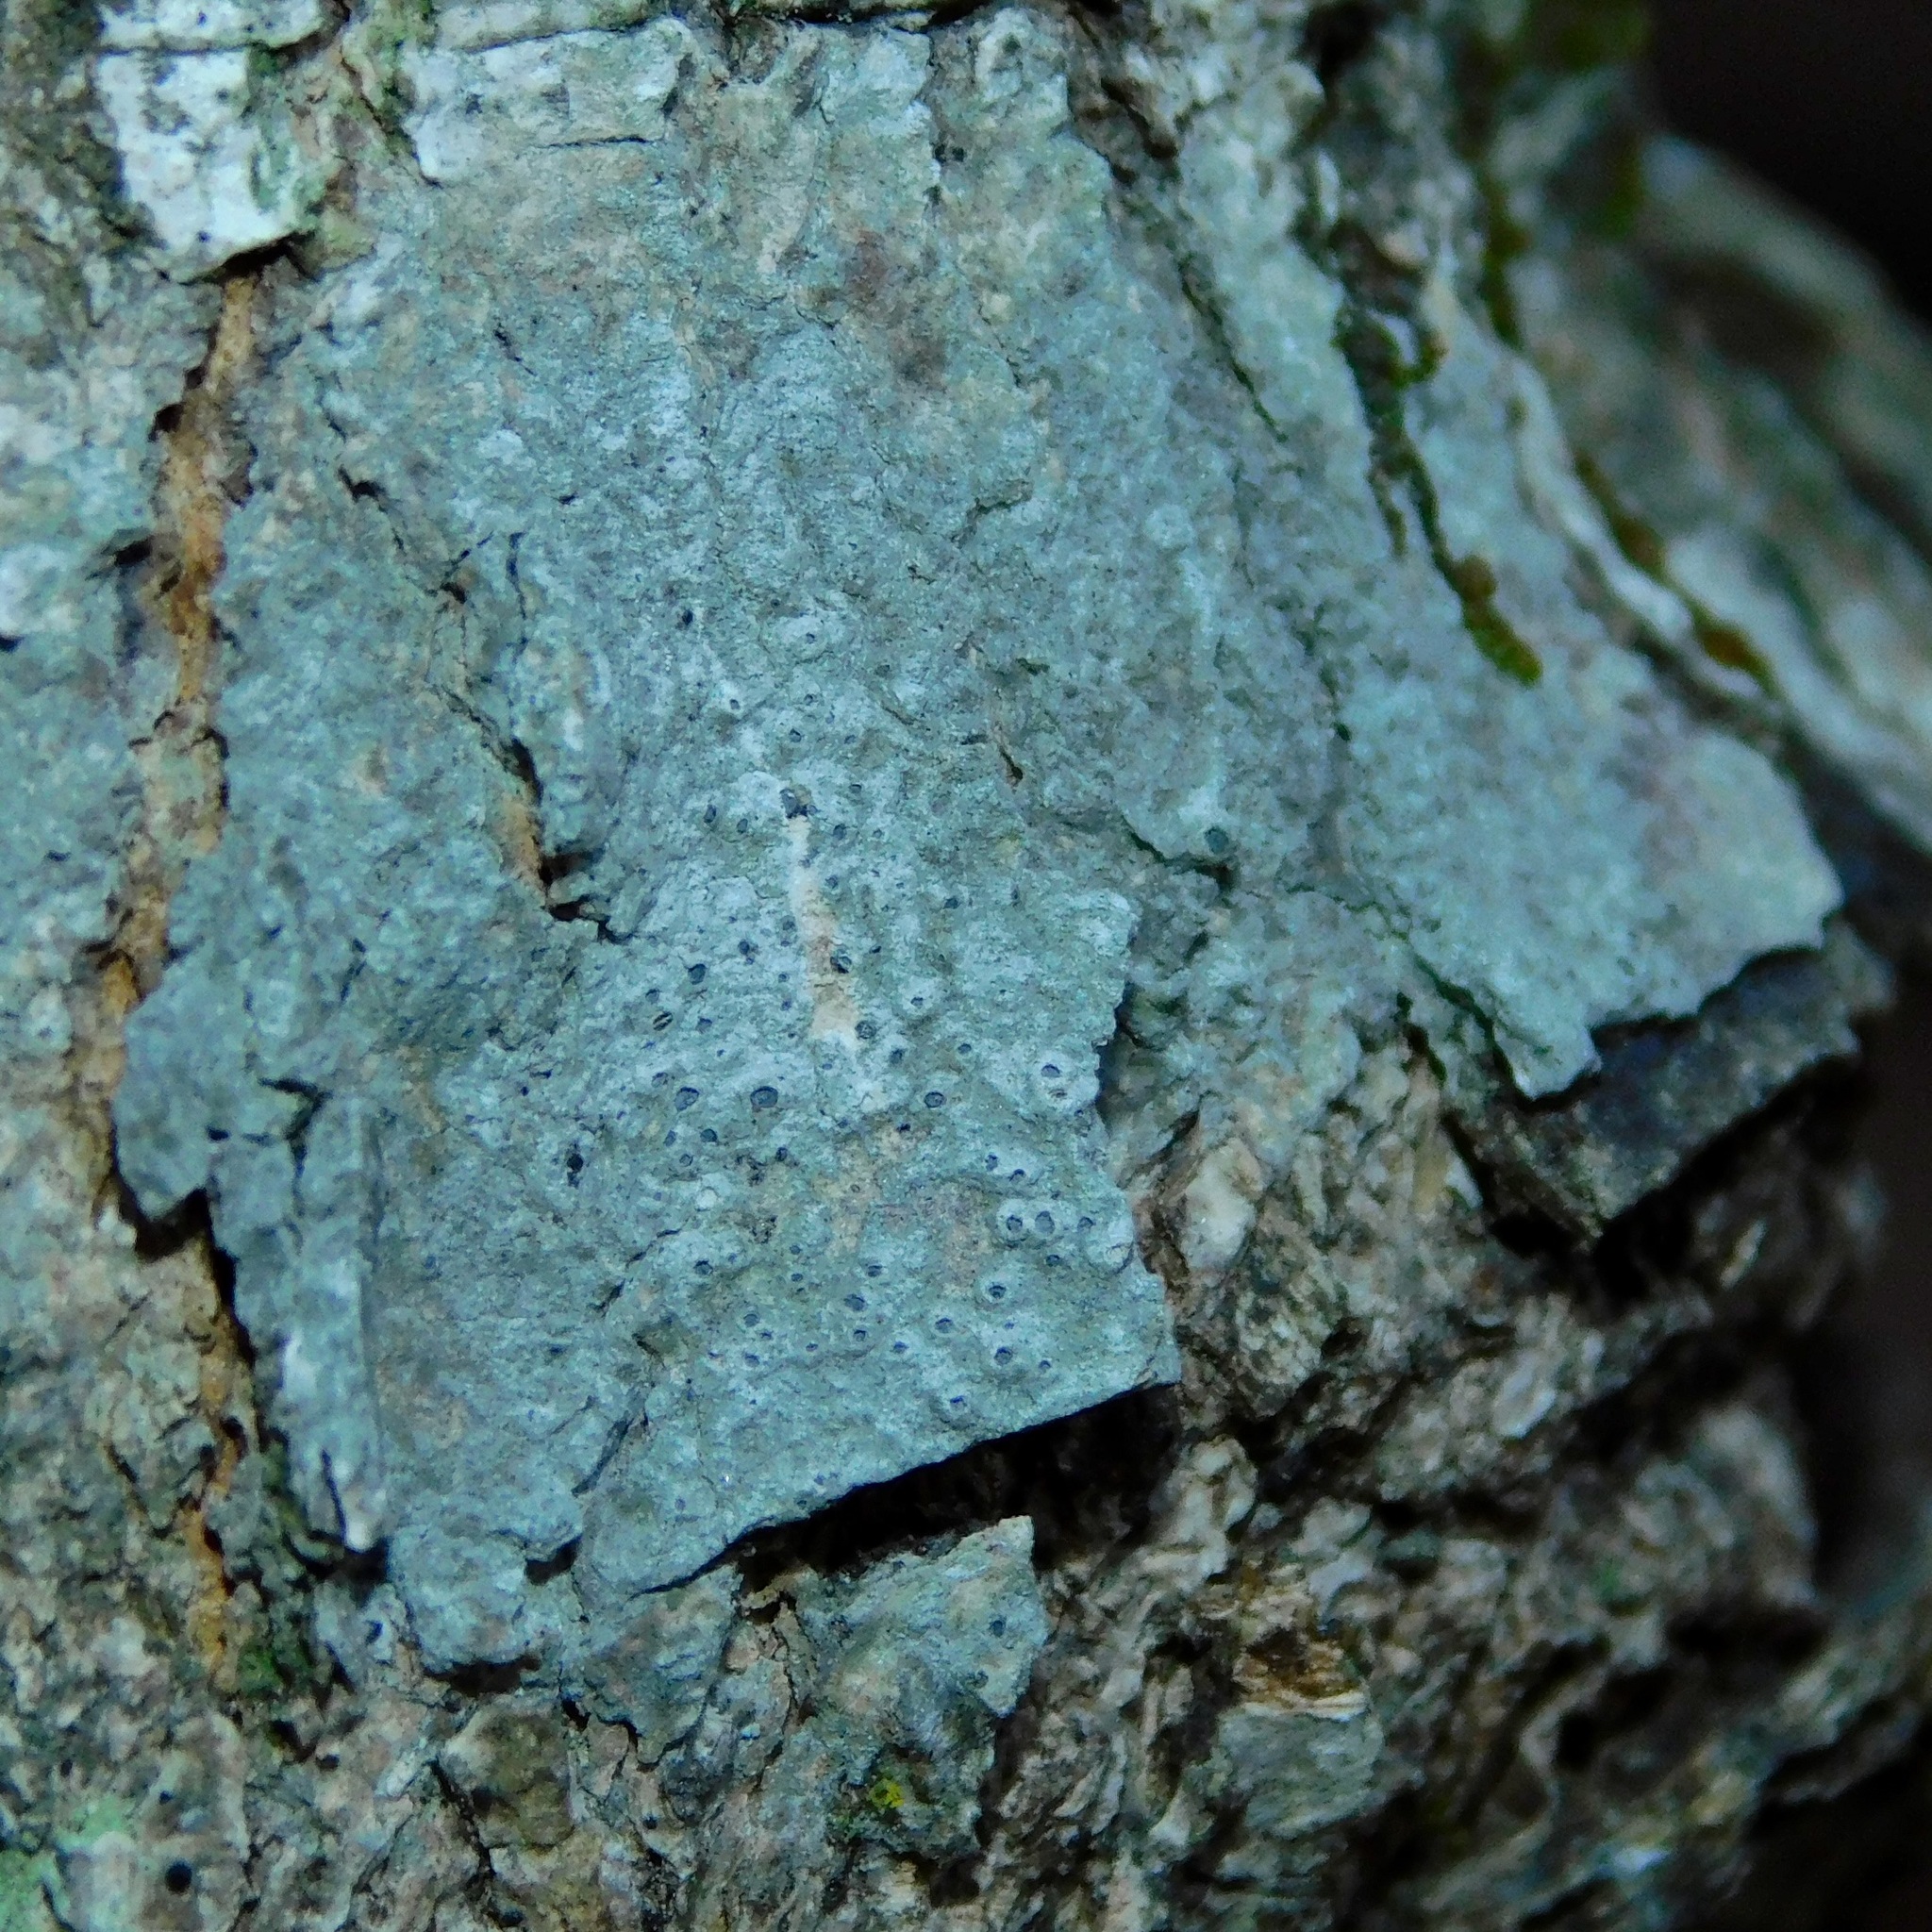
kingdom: Fungi
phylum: Ascomycota
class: Lecanoromycetes
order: Ostropales
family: Graphidaceae
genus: Thelotrema
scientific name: Thelotrema subtile
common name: Delicate barnacles lichen
